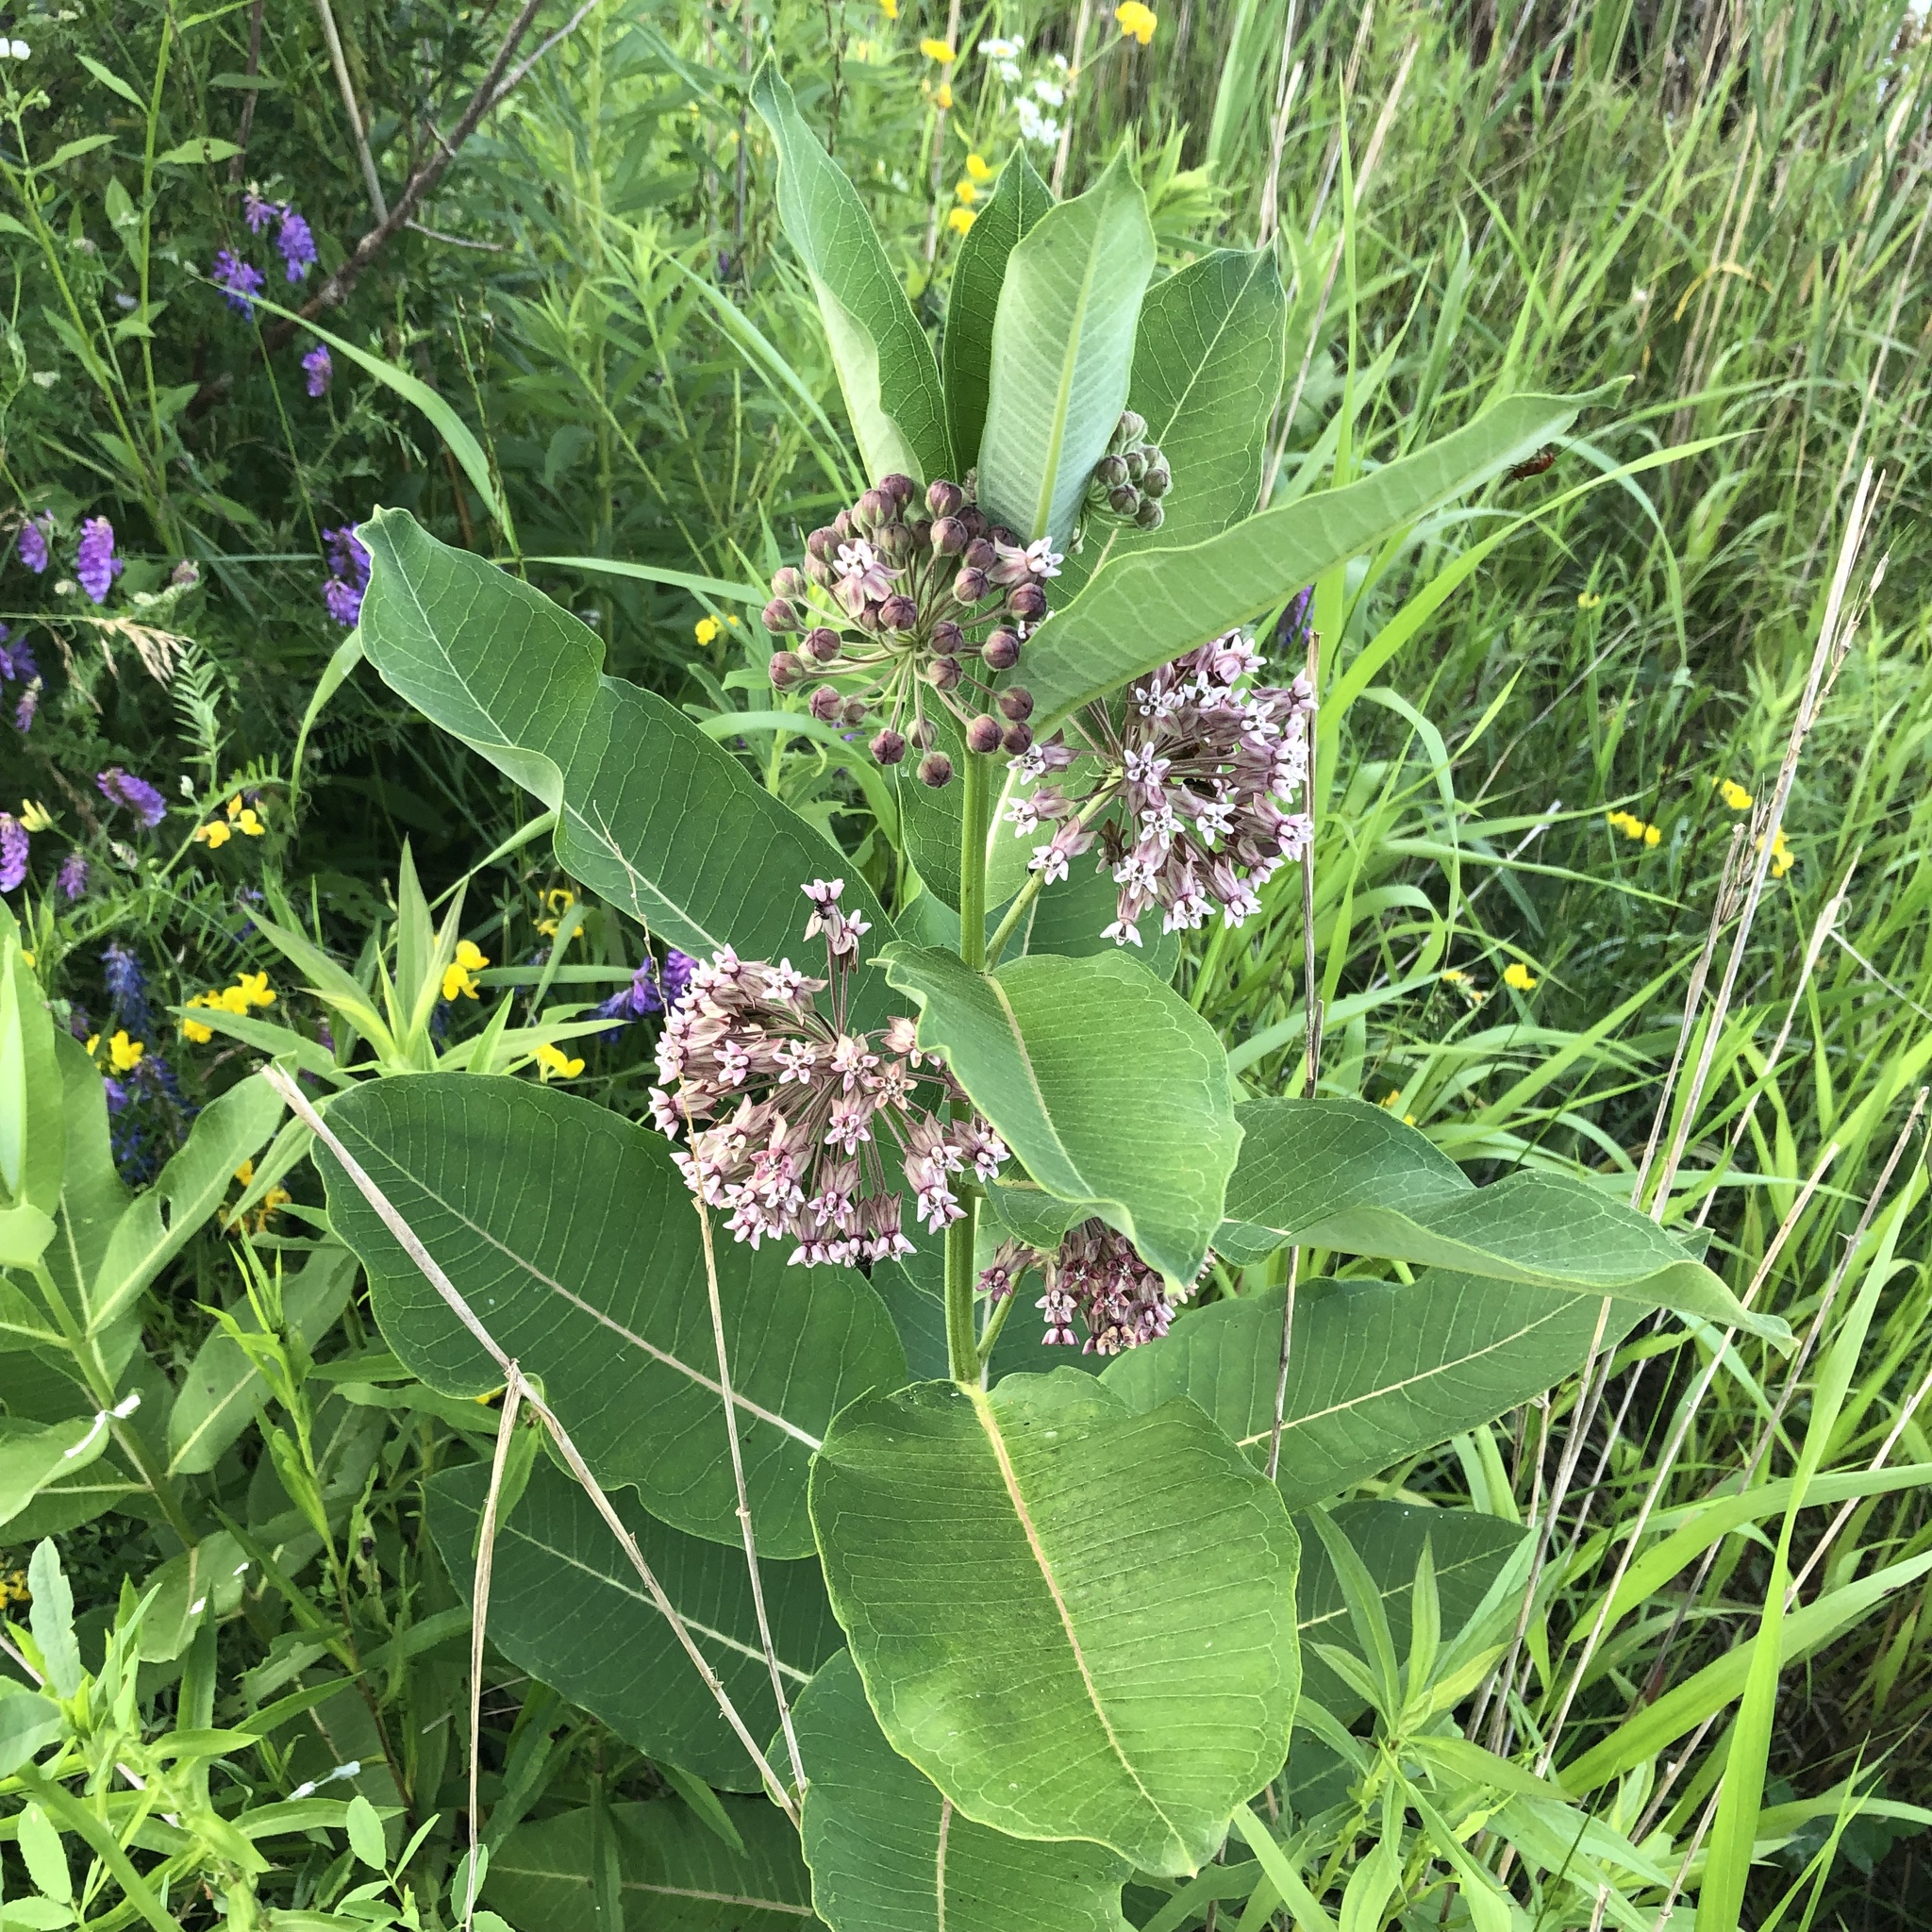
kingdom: Plantae
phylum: Tracheophyta
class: Magnoliopsida
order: Gentianales
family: Apocynaceae
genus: Asclepias
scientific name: Asclepias syriaca
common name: Common milkweed
